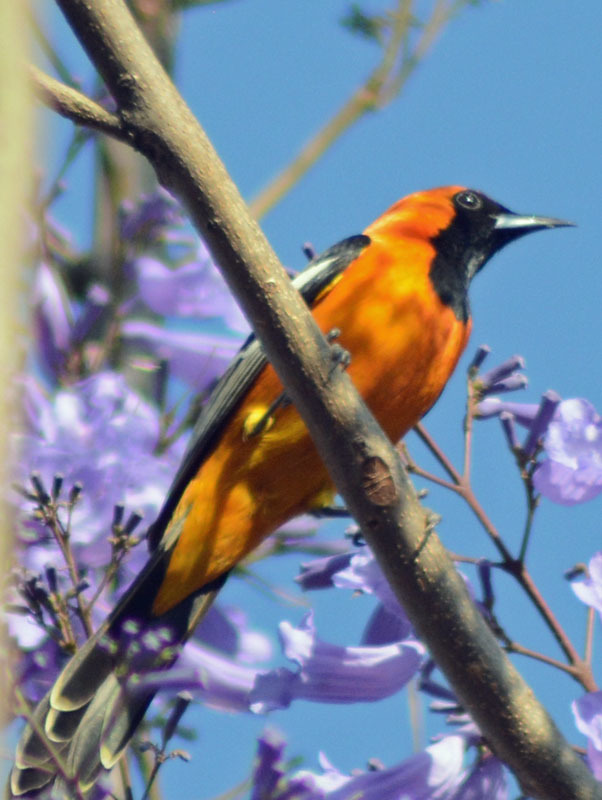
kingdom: Animalia
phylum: Chordata
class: Aves
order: Passeriformes
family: Icteridae
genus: Icterus
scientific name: Icterus cucullatus
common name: Hooded oriole
